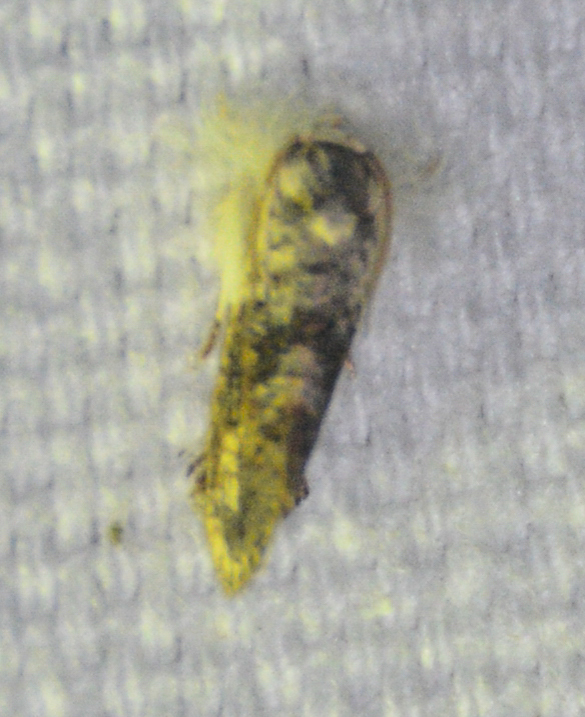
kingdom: Animalia
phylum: Arthropoda
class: Insecta
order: Lepidoptera
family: Tineidae
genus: Acrolophus
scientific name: Acrolophus mycetophagus
